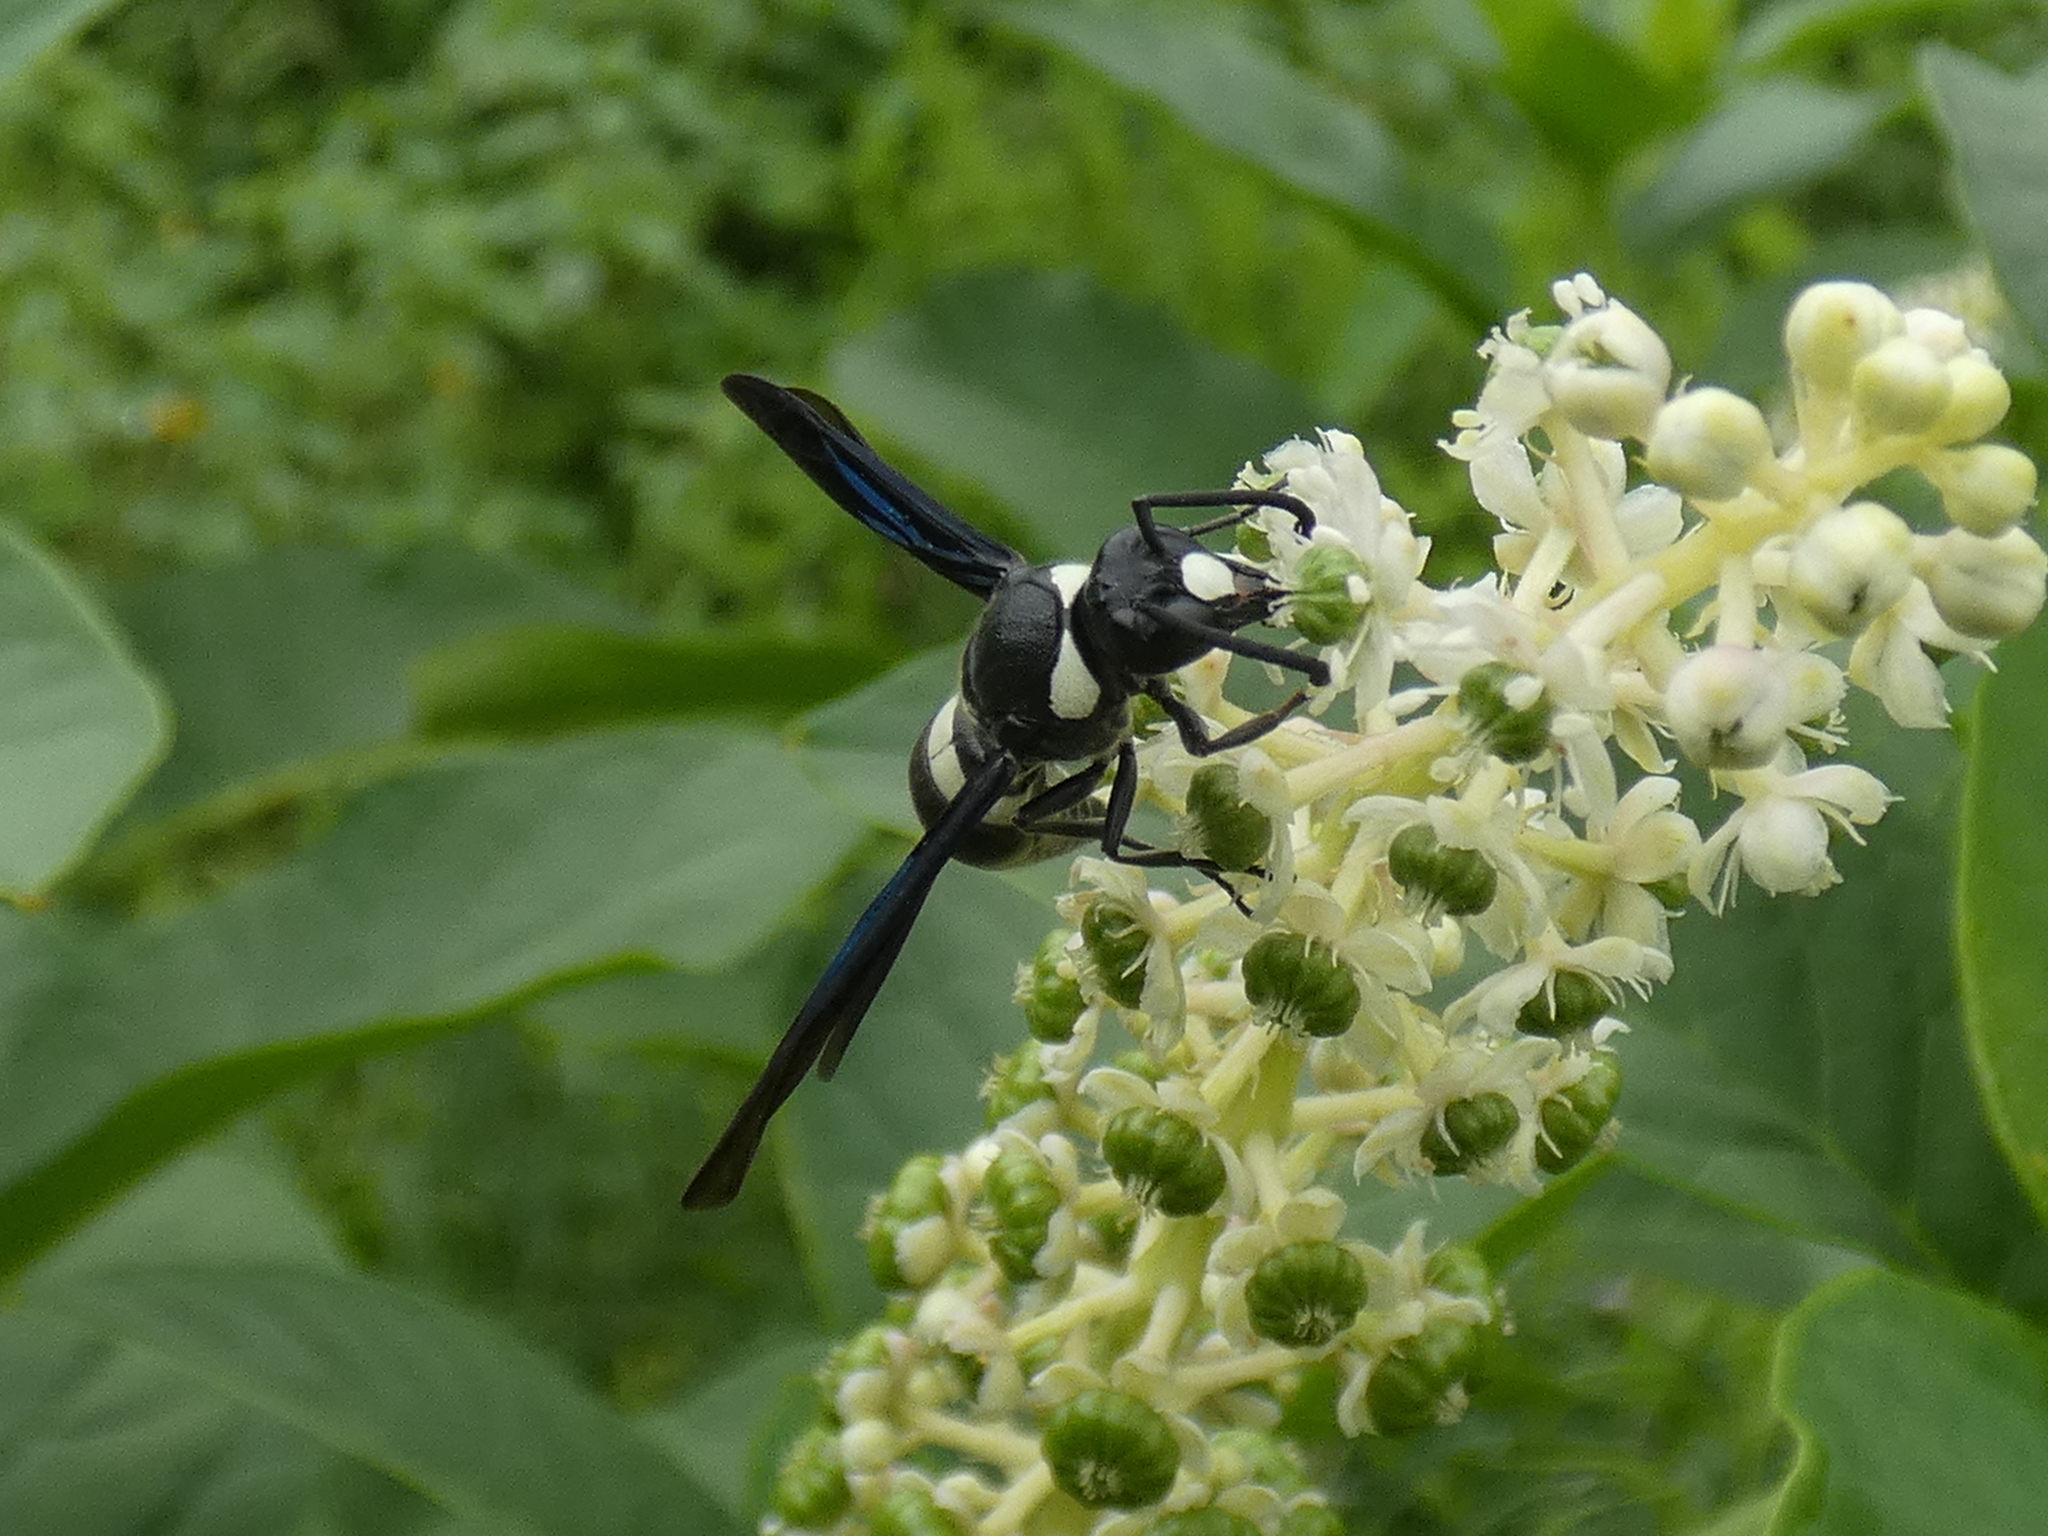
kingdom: Animalia
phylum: Arthropoda
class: Insecta
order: Hymenoptera
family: Eumenidae
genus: Monobia
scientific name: Monobia quadridens
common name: Four-toothed mason wasp
